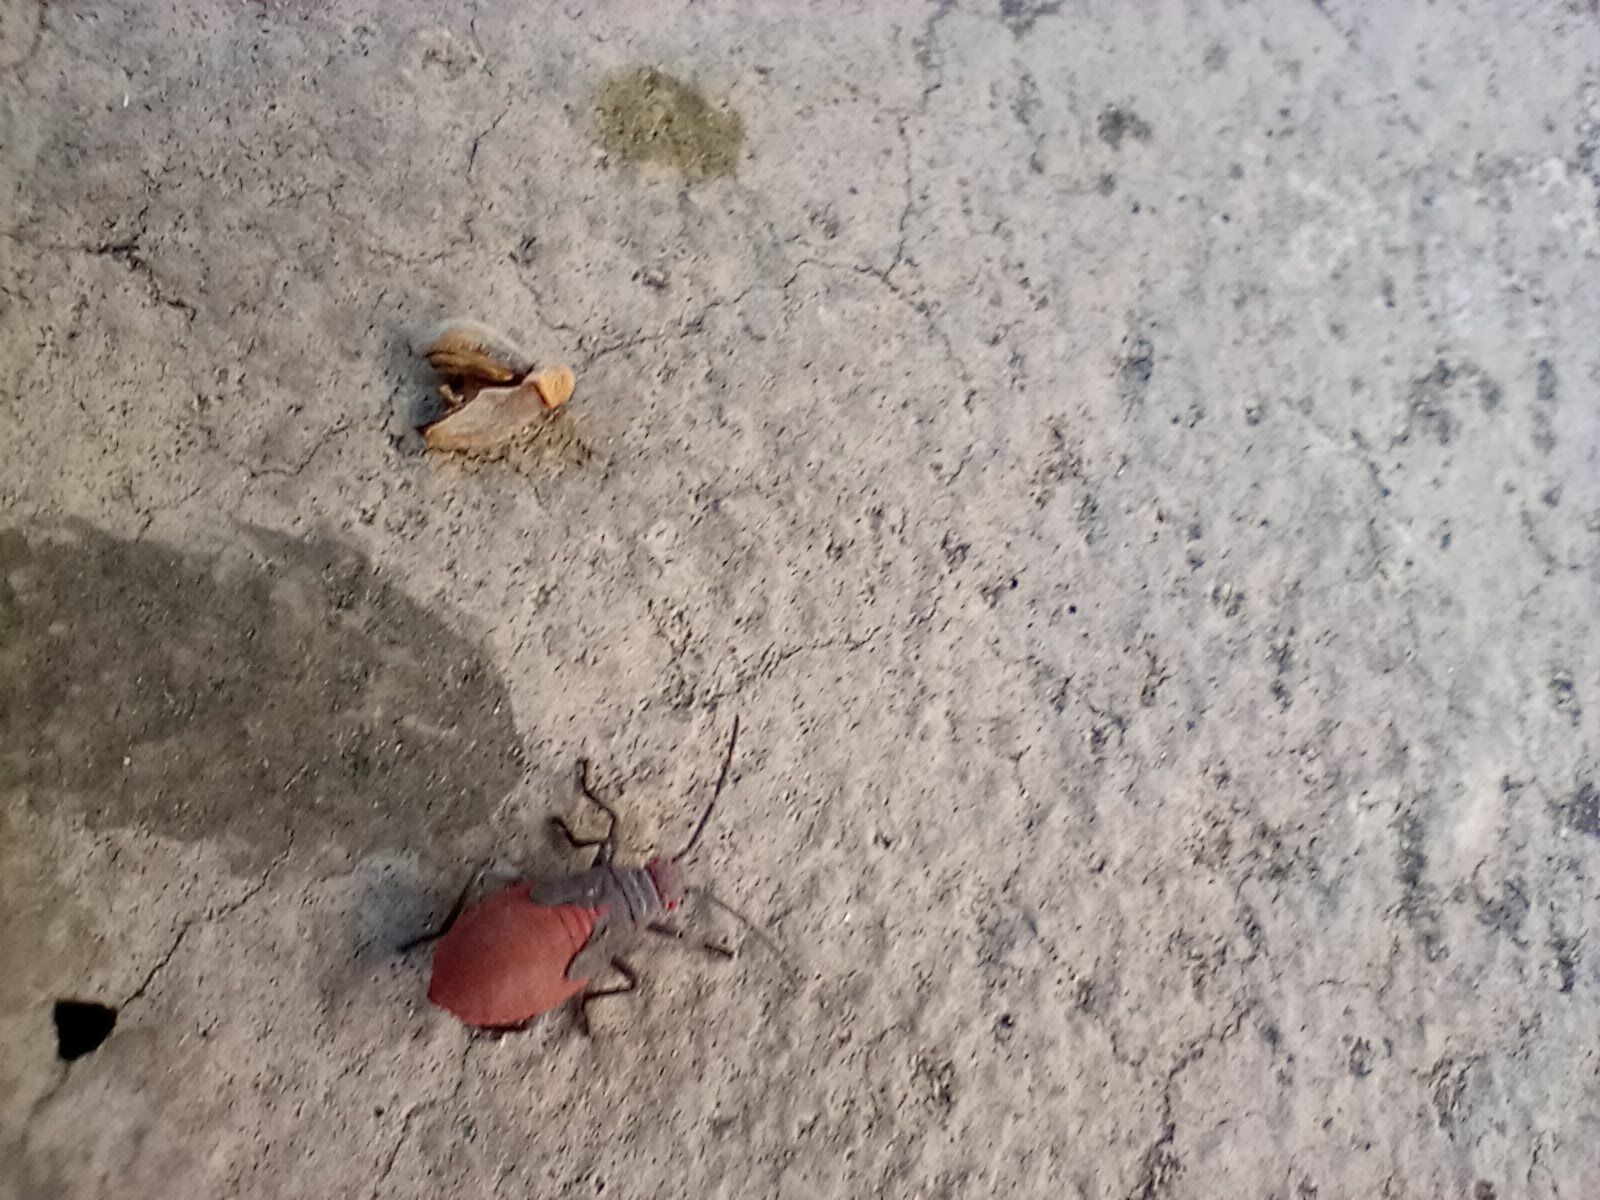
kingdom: Animalia
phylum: Arthropoda
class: Insecta
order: Hemiptera
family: Rhopalidae
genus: Jadera
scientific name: Jadera haematoloma
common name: Red-shouldered bug
